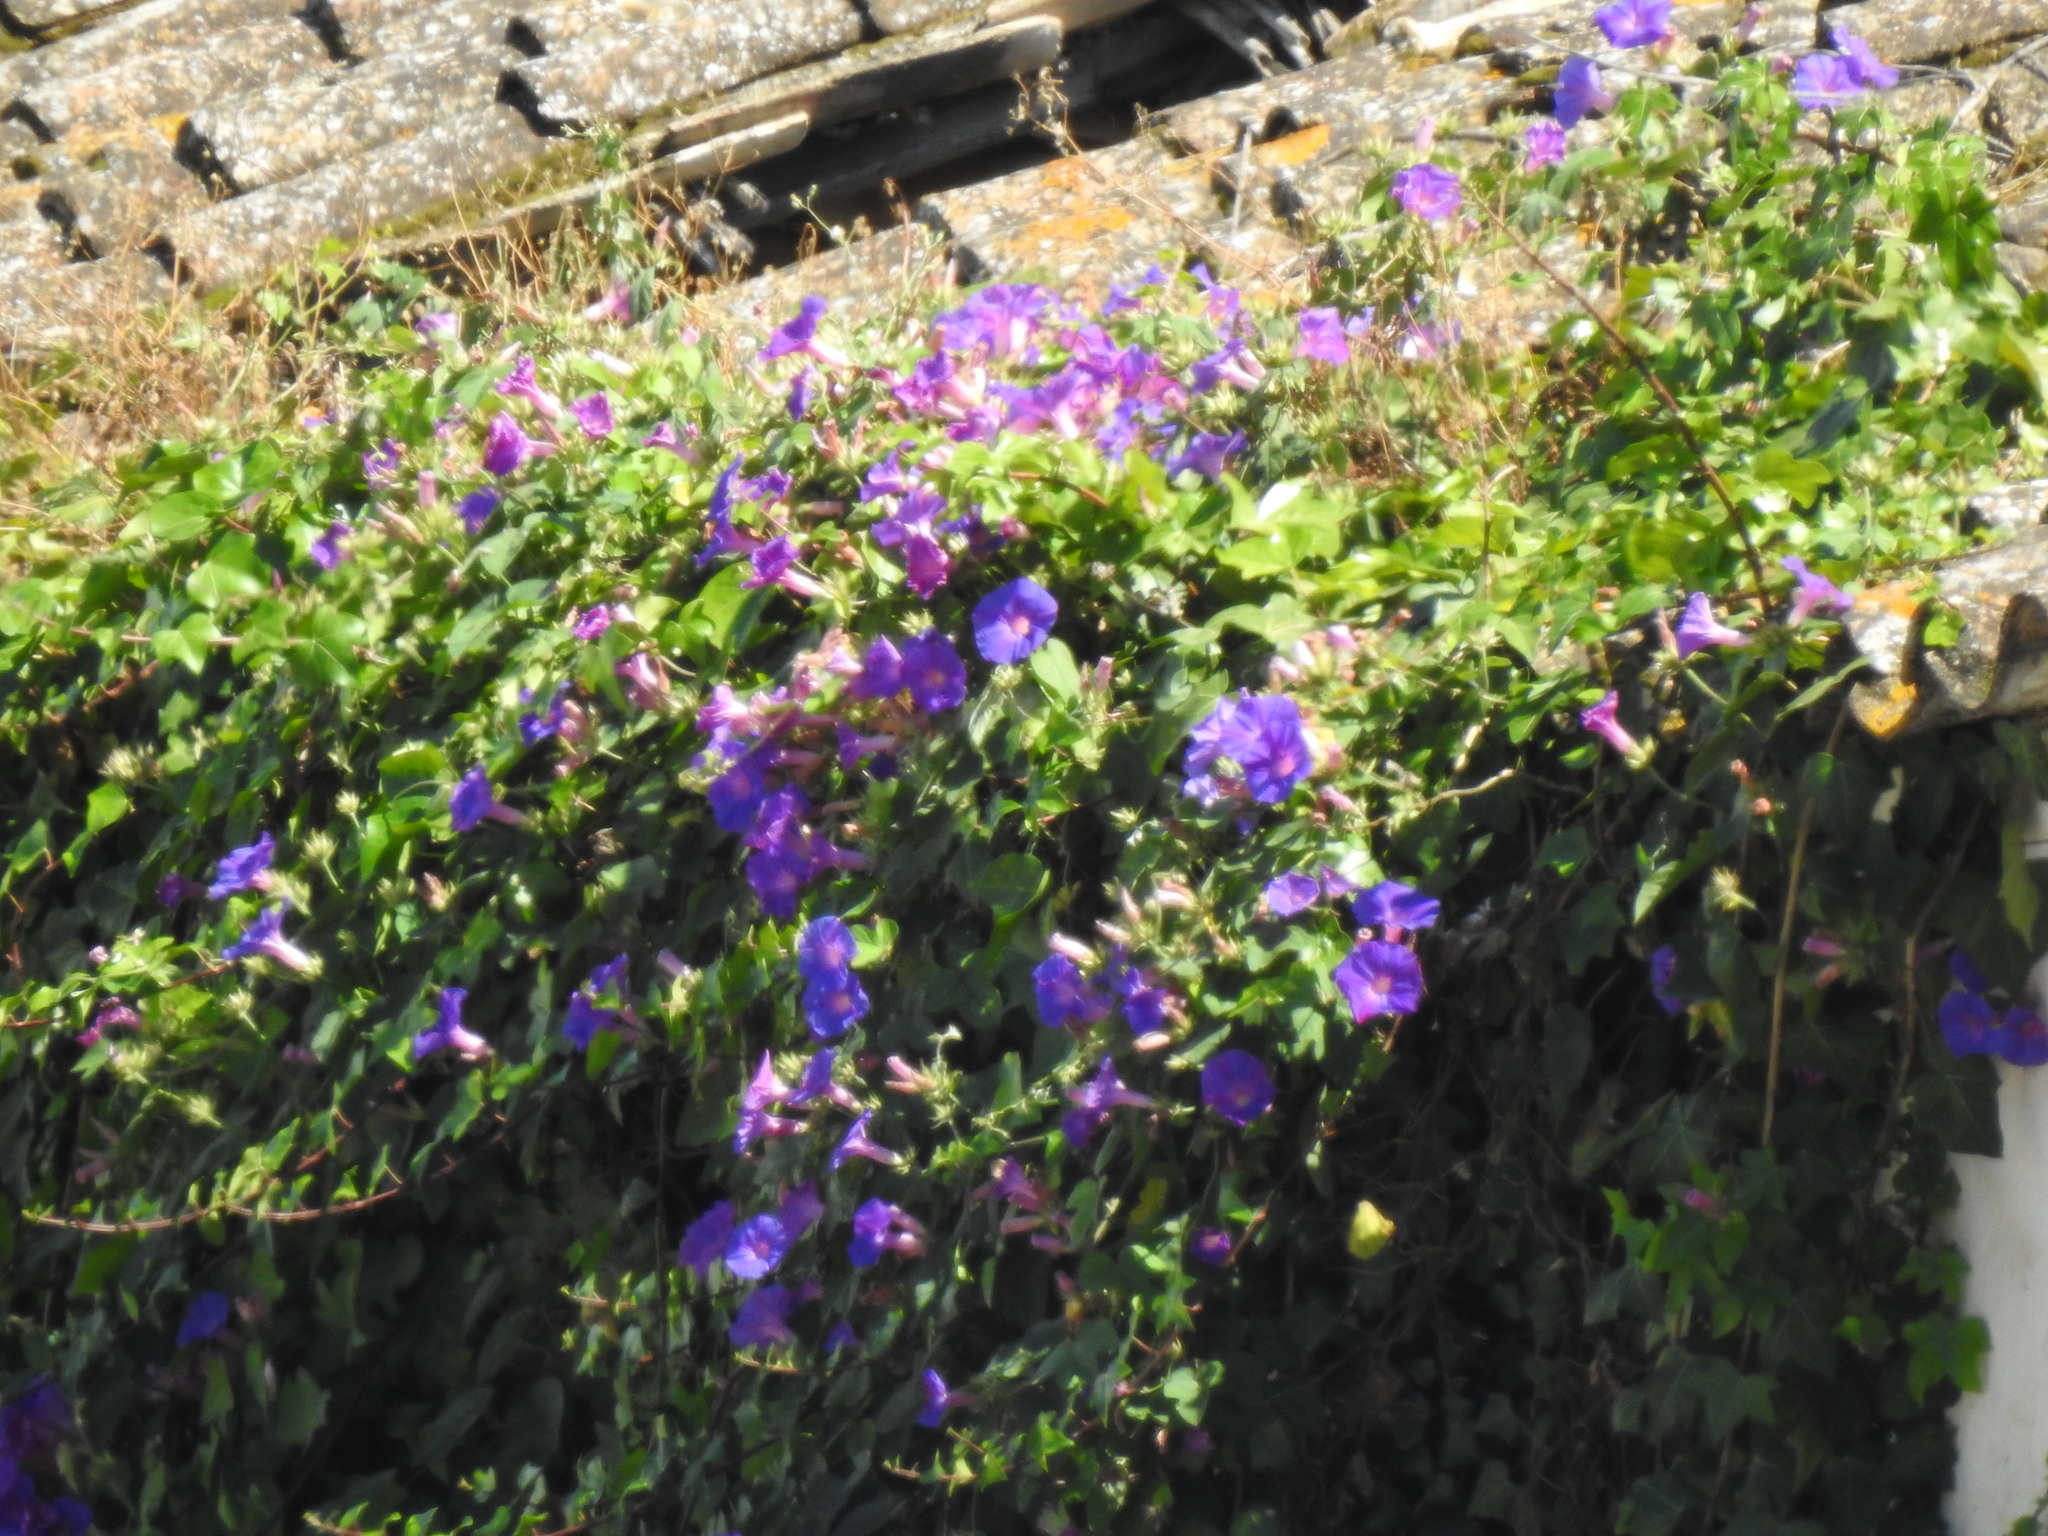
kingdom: Plantae
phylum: Tracheophyta
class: Magnoliopsida
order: Solanales
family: Convolvulaceae
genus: Ipomoea
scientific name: Ipomoea indica
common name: Blue dawnflower
